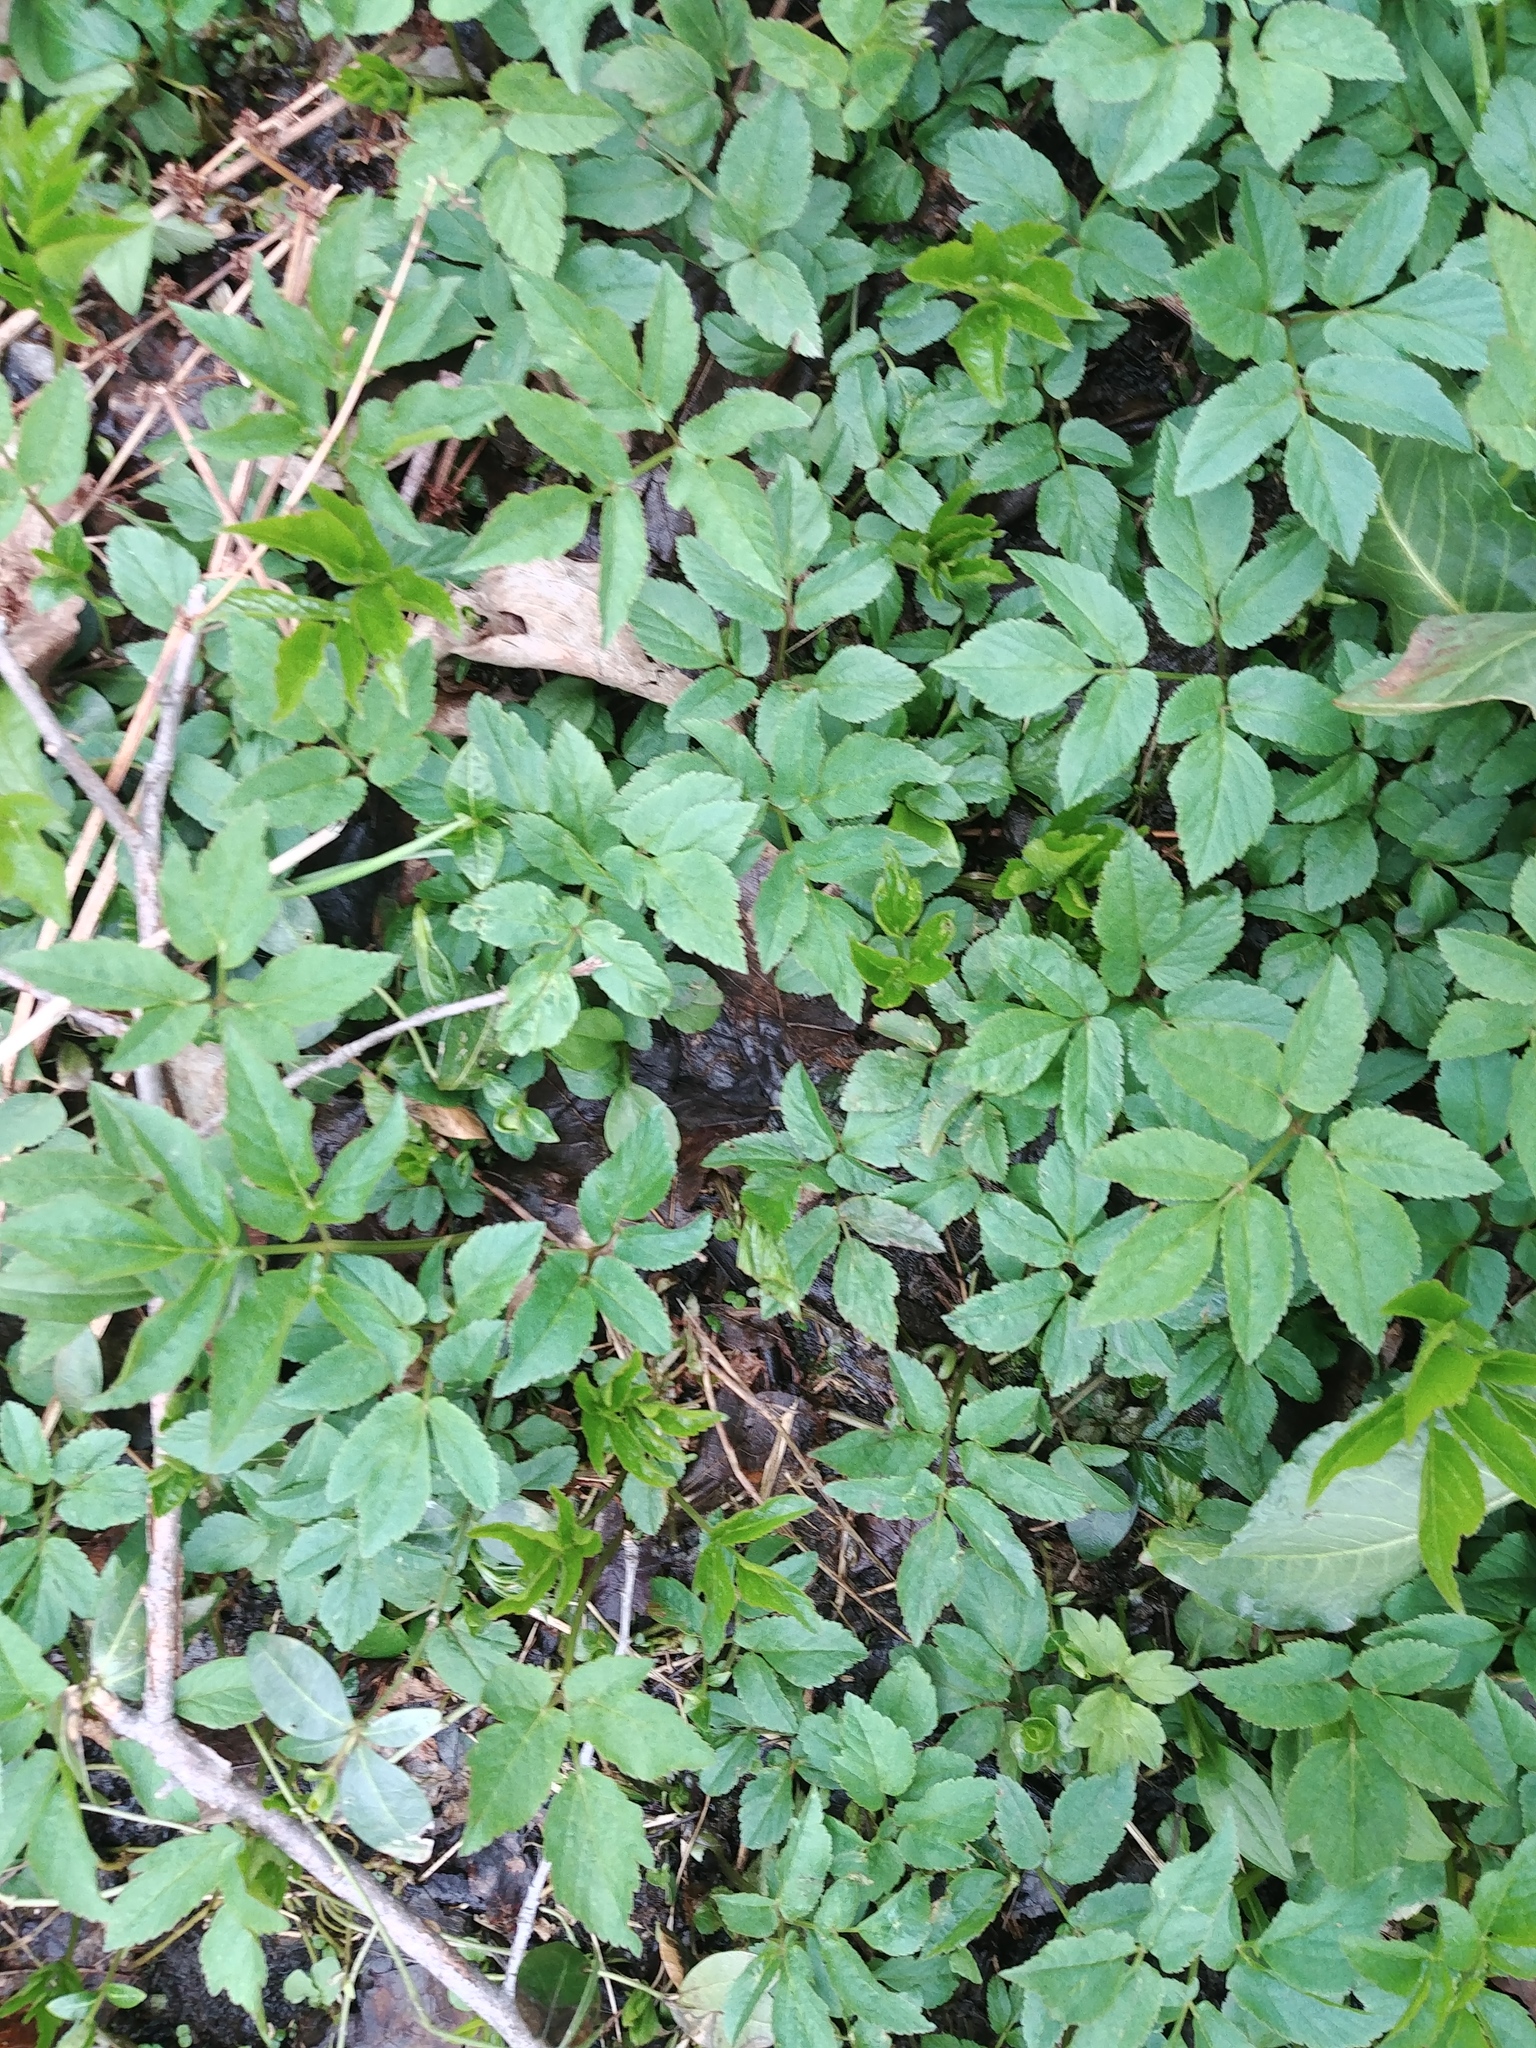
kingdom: Plantae
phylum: Tracheophyta
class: Magnoliopsida
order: Apiales
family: Apiaceae
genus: Aegopodium
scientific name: Aegopodium podagraria
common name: Ground-elder
